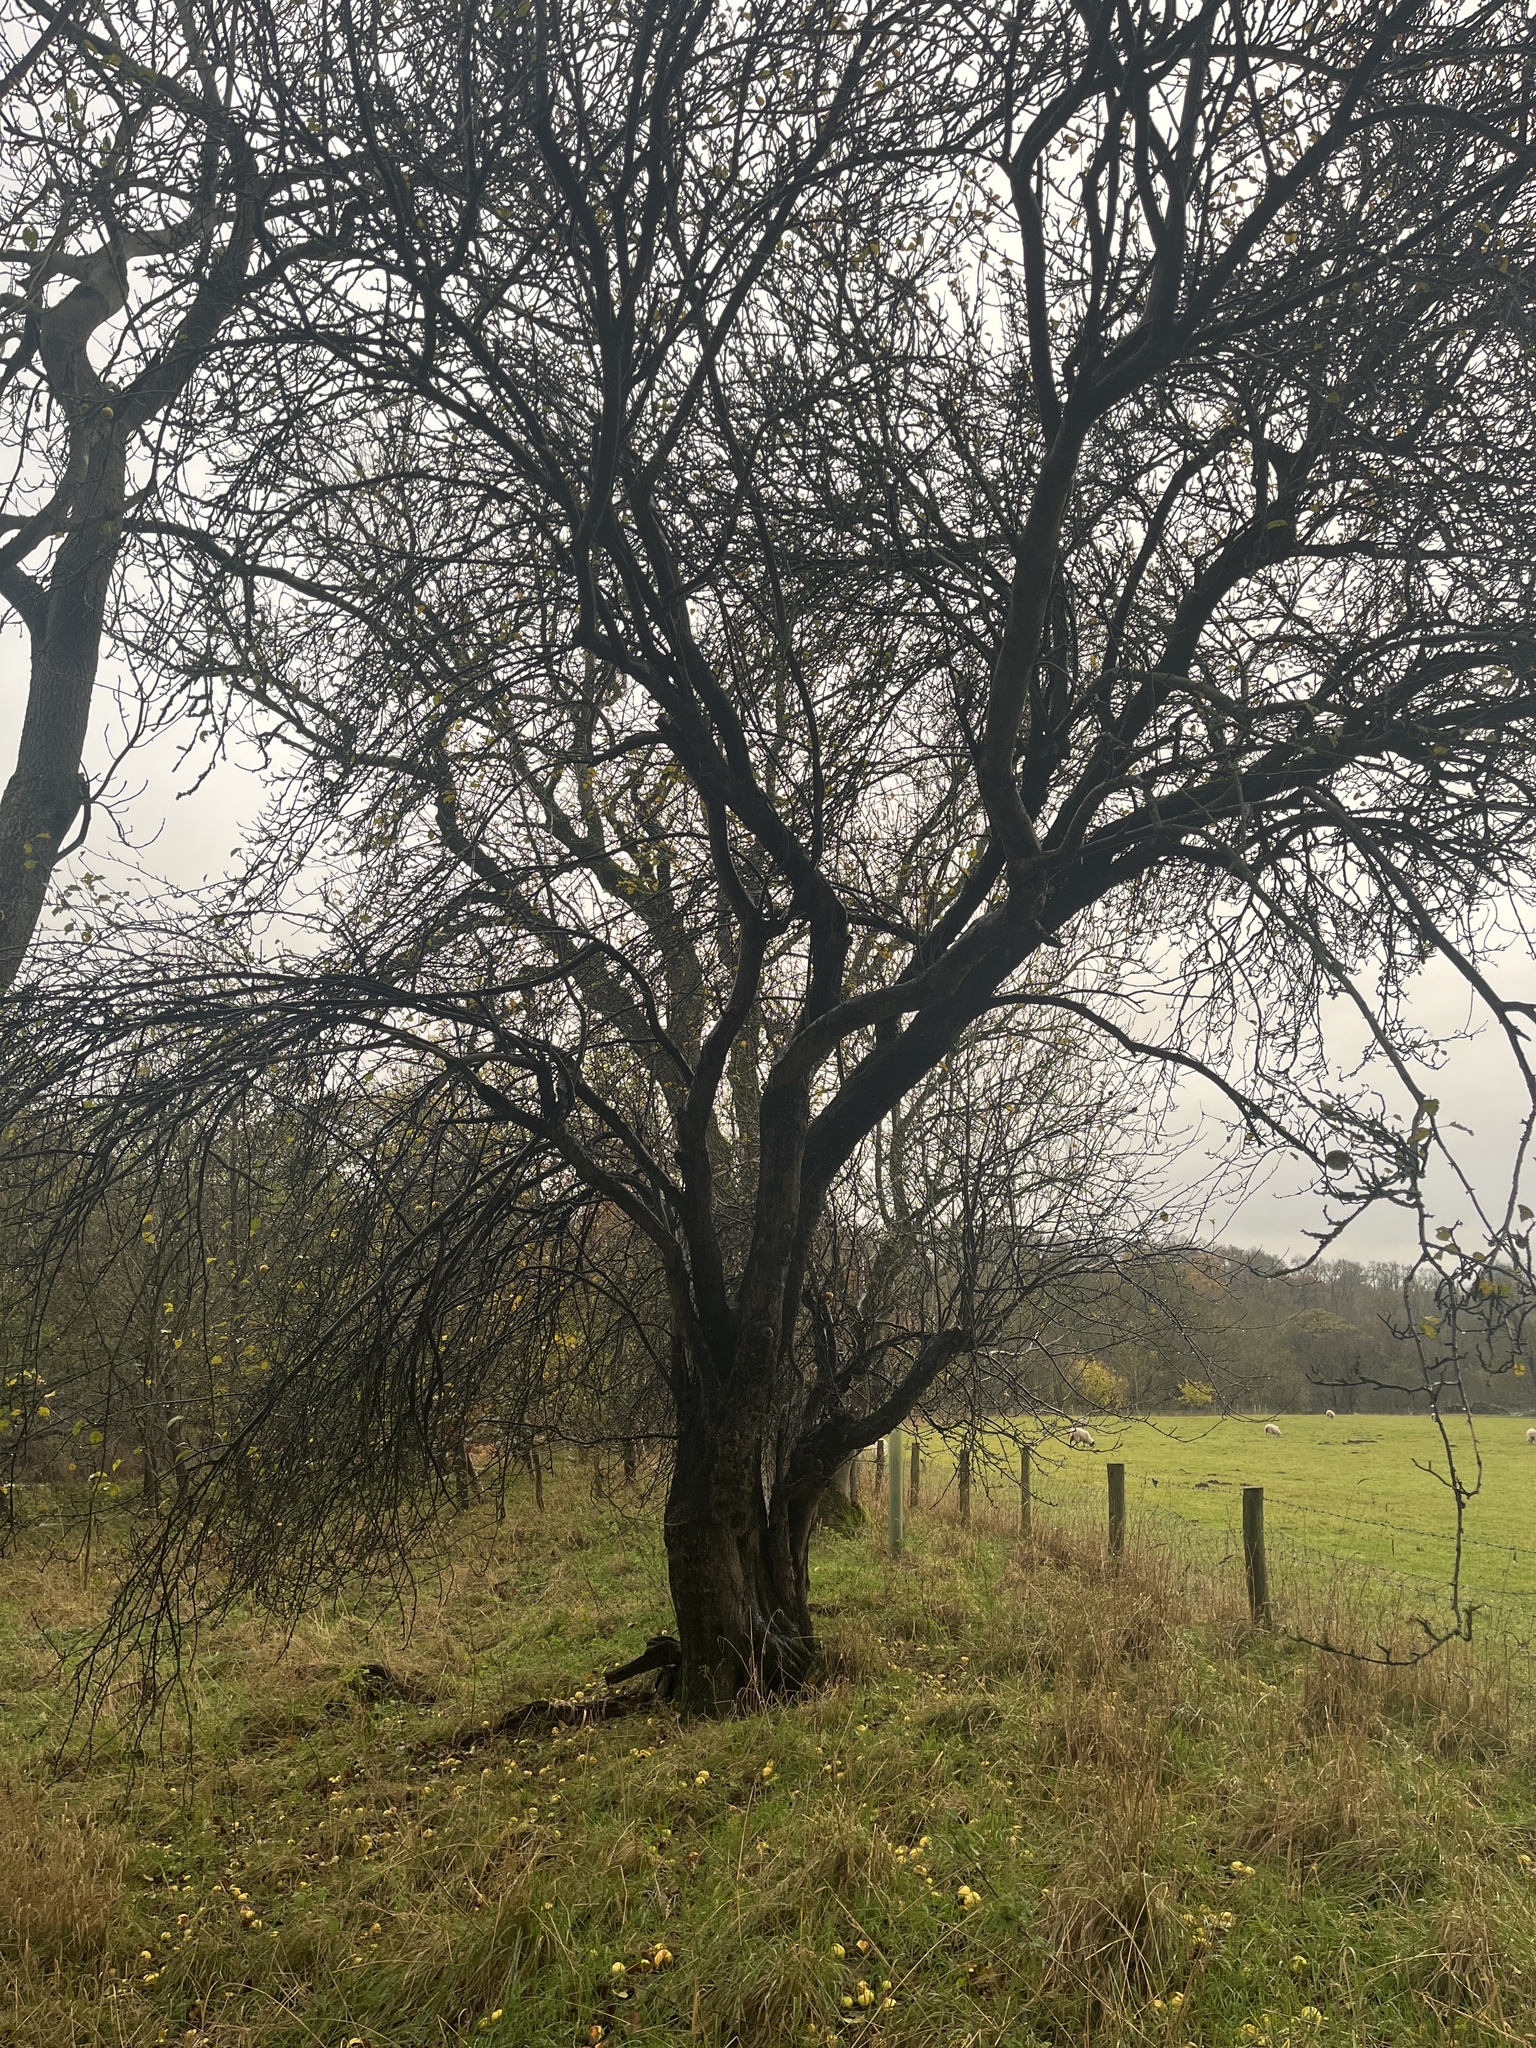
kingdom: Plantae
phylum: Tracheophyta
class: Magnoliopsida
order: Rosales
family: Rosaceae
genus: Malus
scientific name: Malus sylvestris
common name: Crab apple
